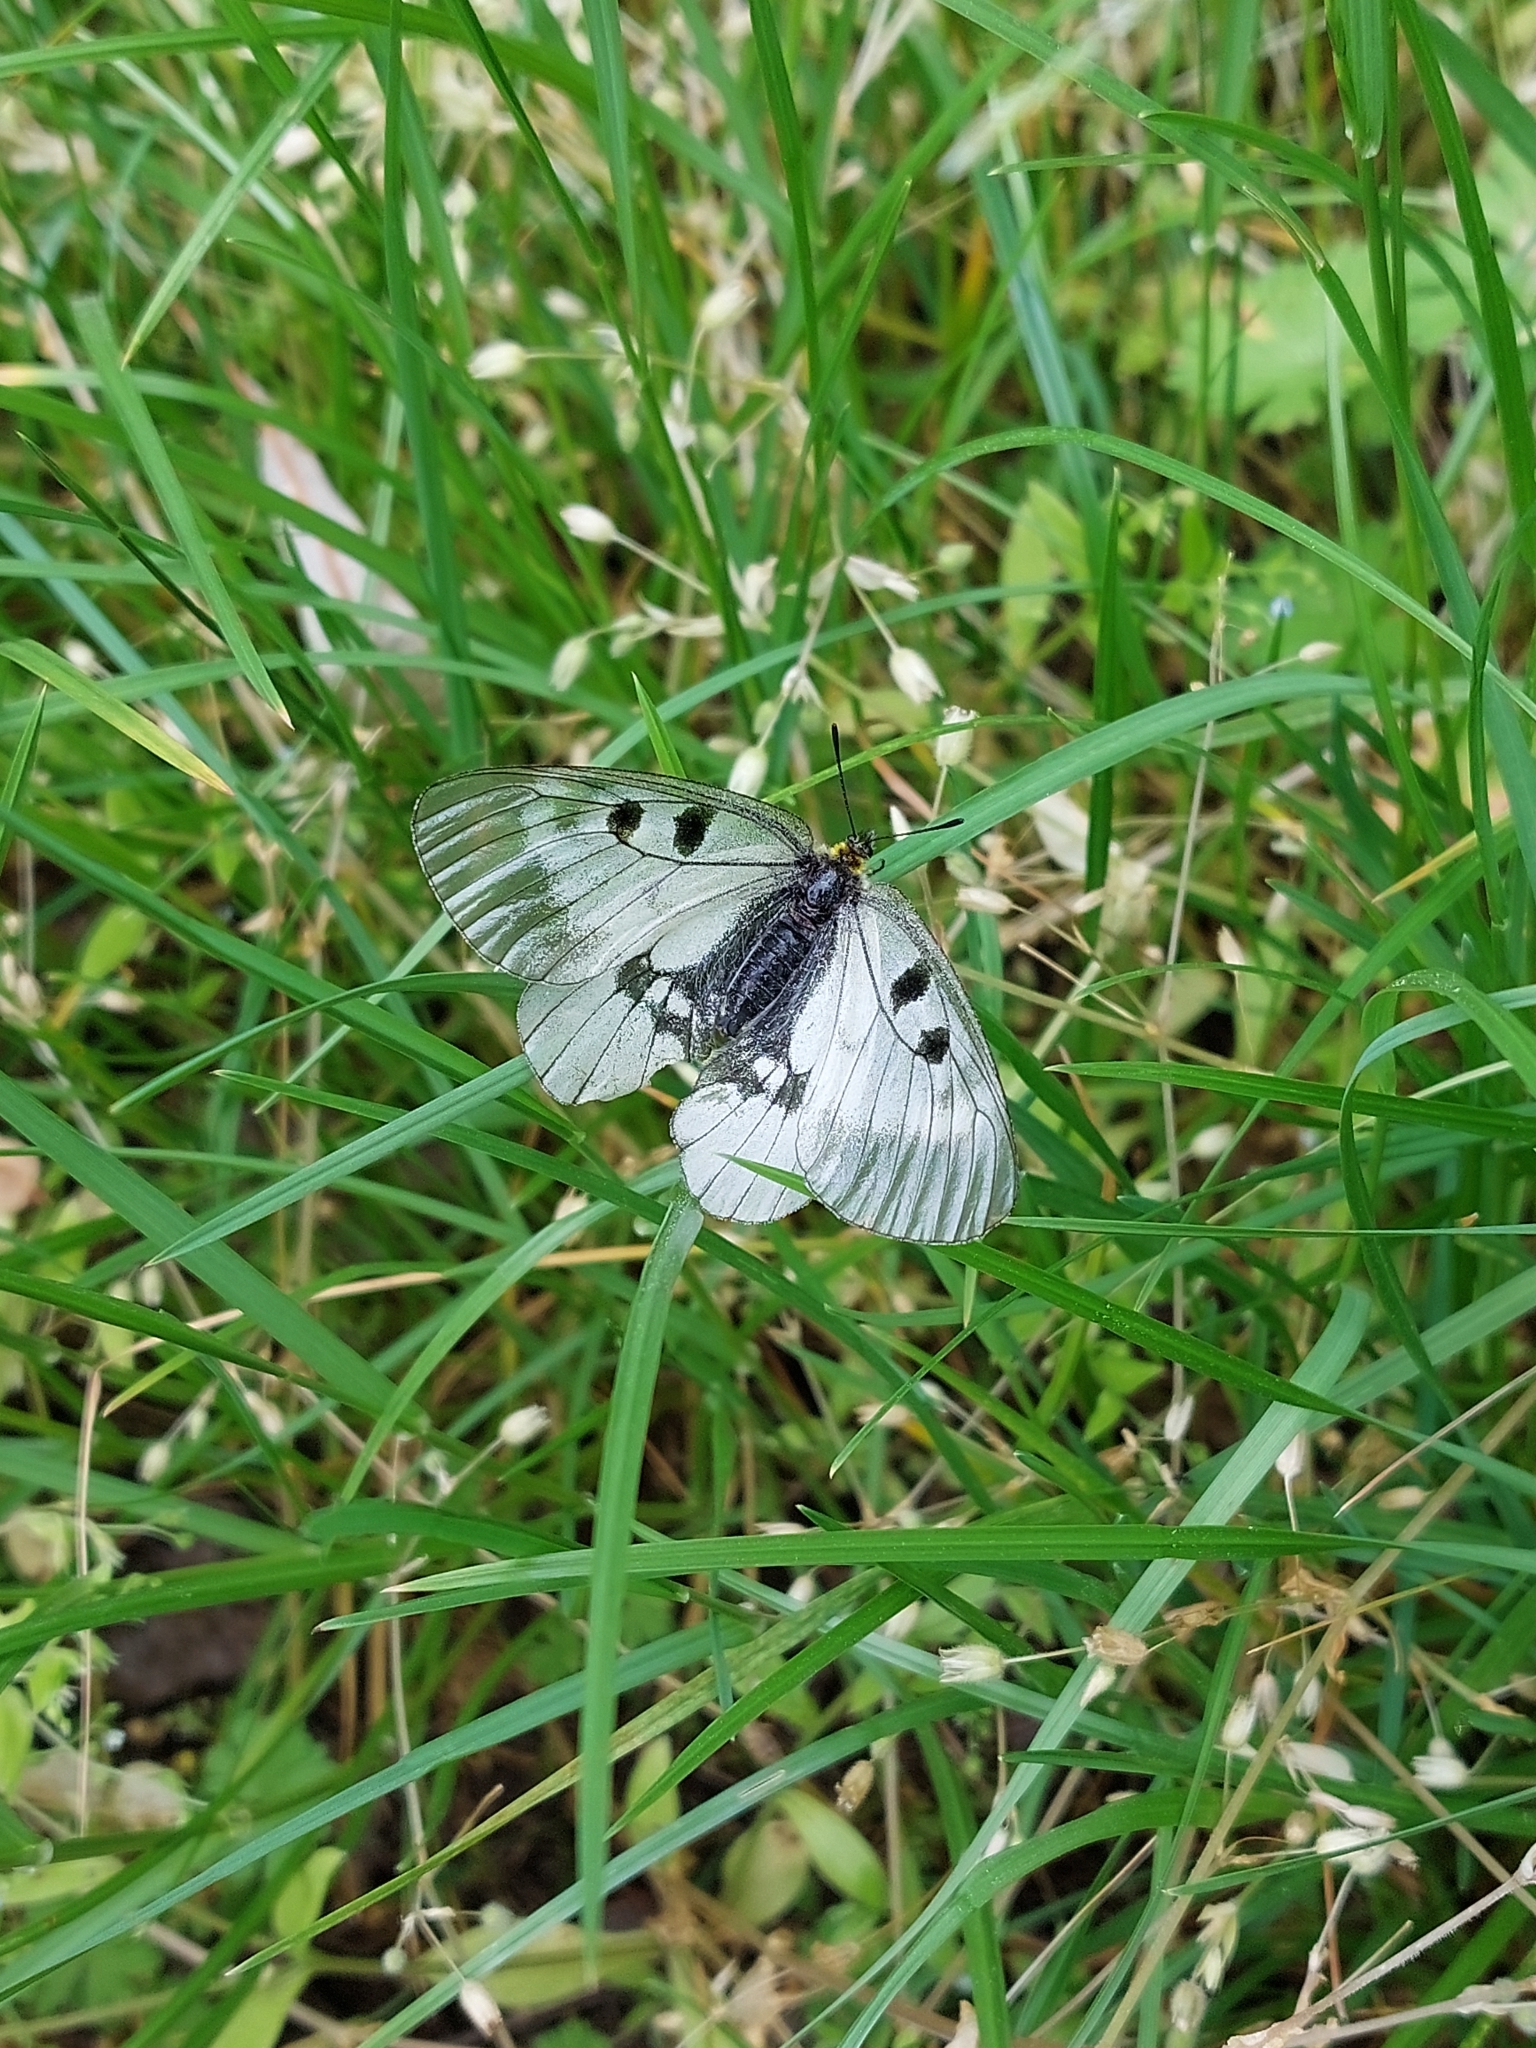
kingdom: Animalia
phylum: Arthropoda
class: Insecta
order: Lepidoptera
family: Papilionidae
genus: Parnassius
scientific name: Parnassius mnemosyne
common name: Clouded apollo
